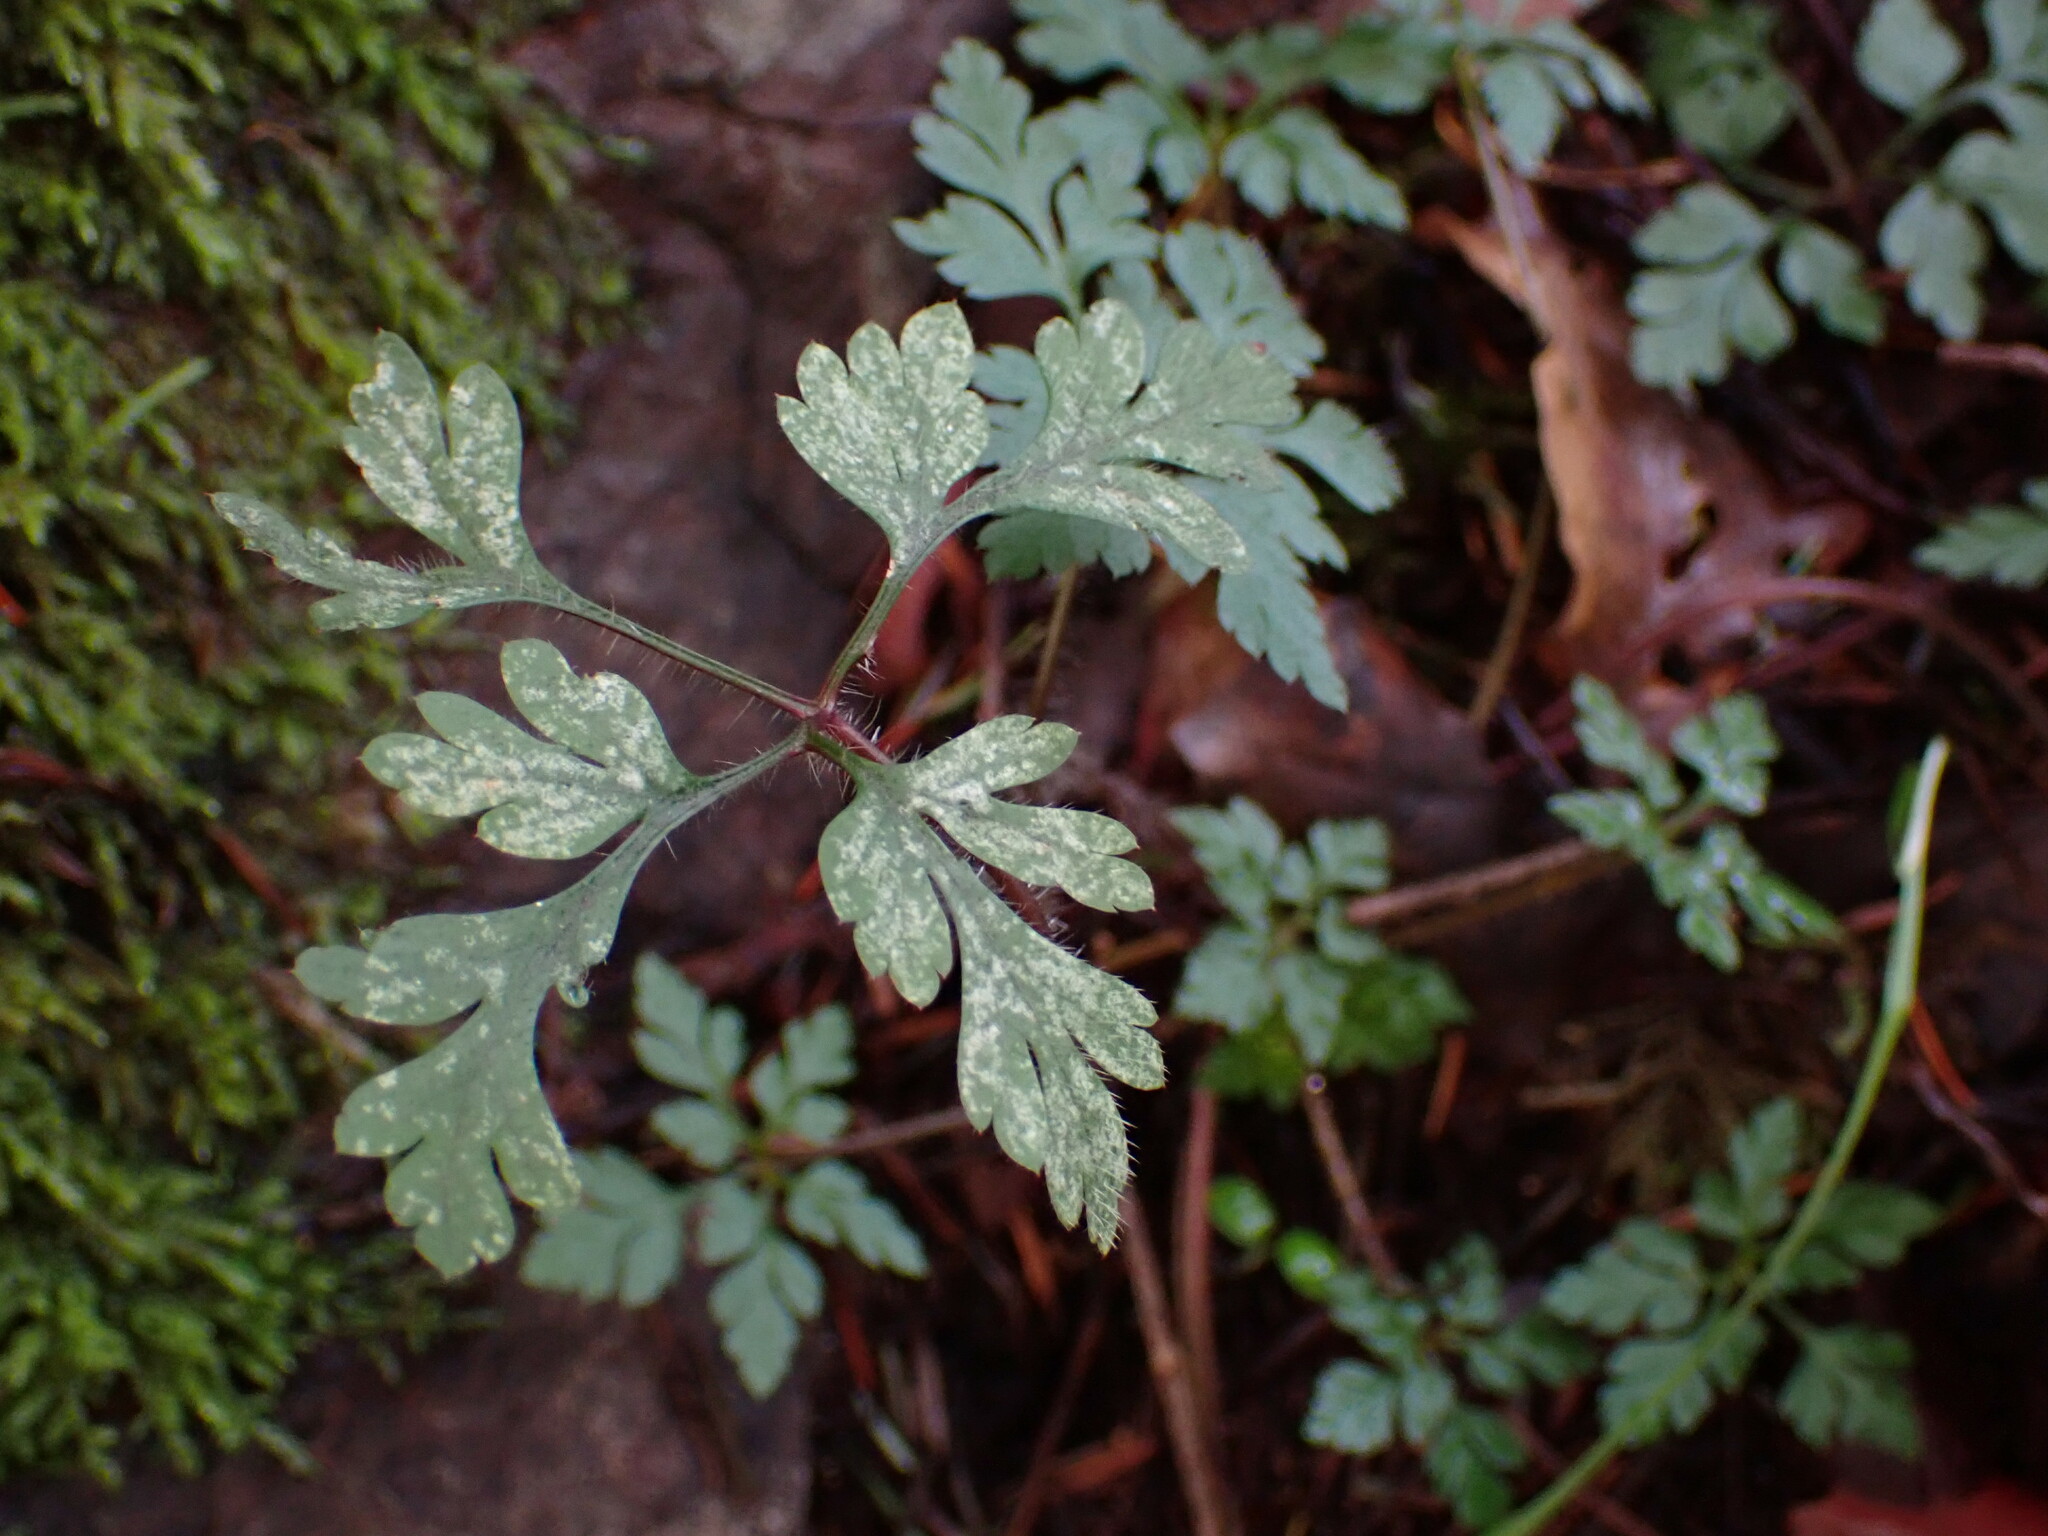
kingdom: Plantae
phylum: Tracheophyta
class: Magnoliopsida
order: Geraniales
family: Geraniaceae
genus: Geranium
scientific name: Geranium robertianum
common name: Herb-robert
